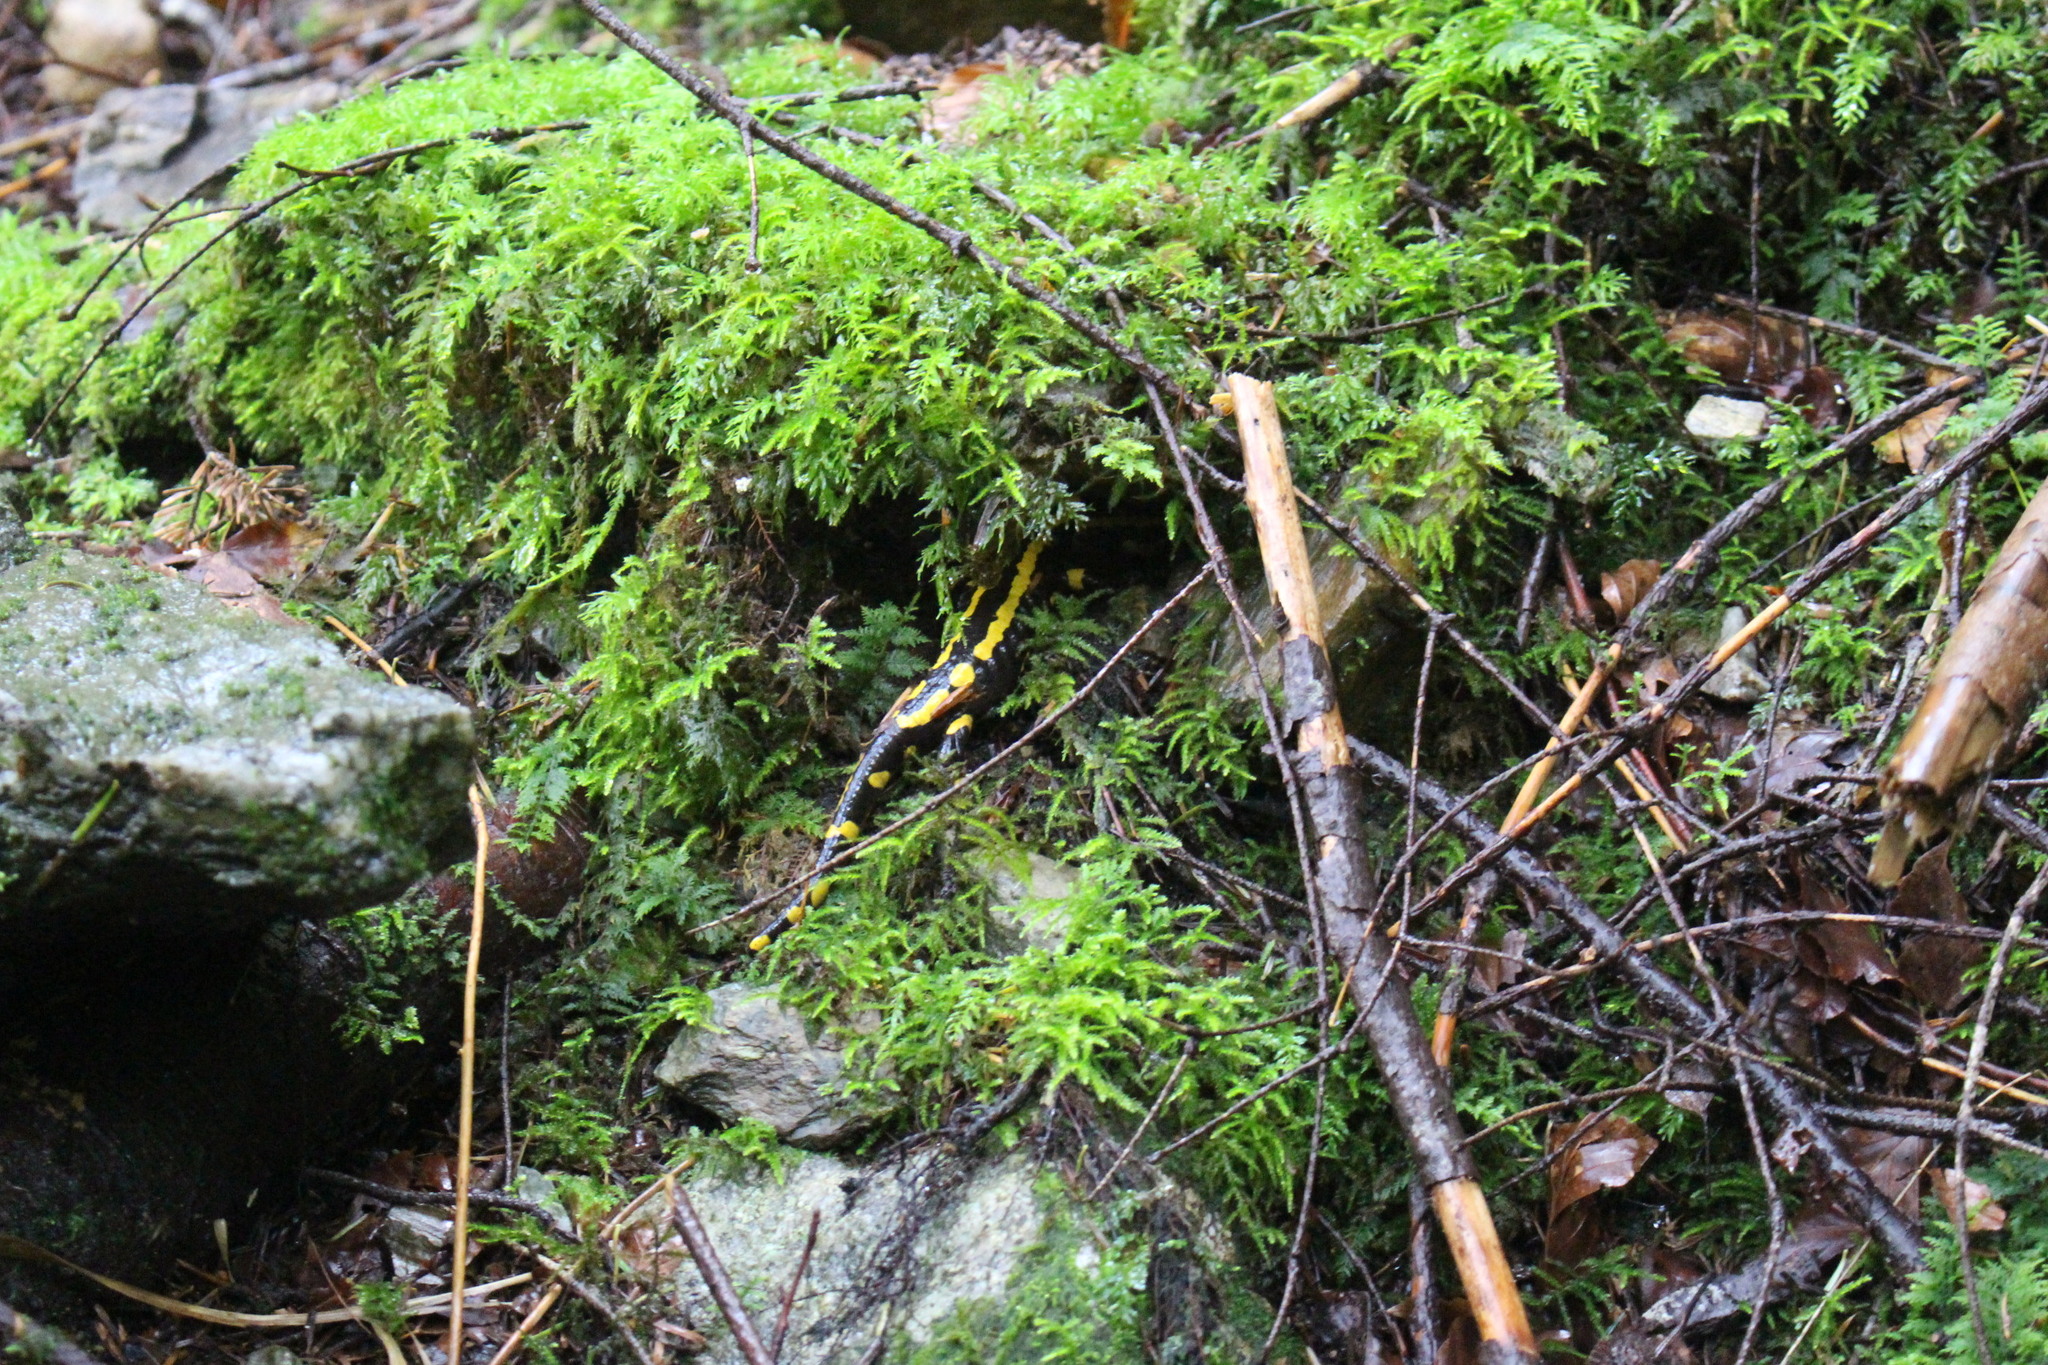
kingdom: Animalia
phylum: Chordata
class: Amphibia
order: Caudata
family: Salamandridae
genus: Salamandra
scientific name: Salamandra salamandra
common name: Fire salamander
